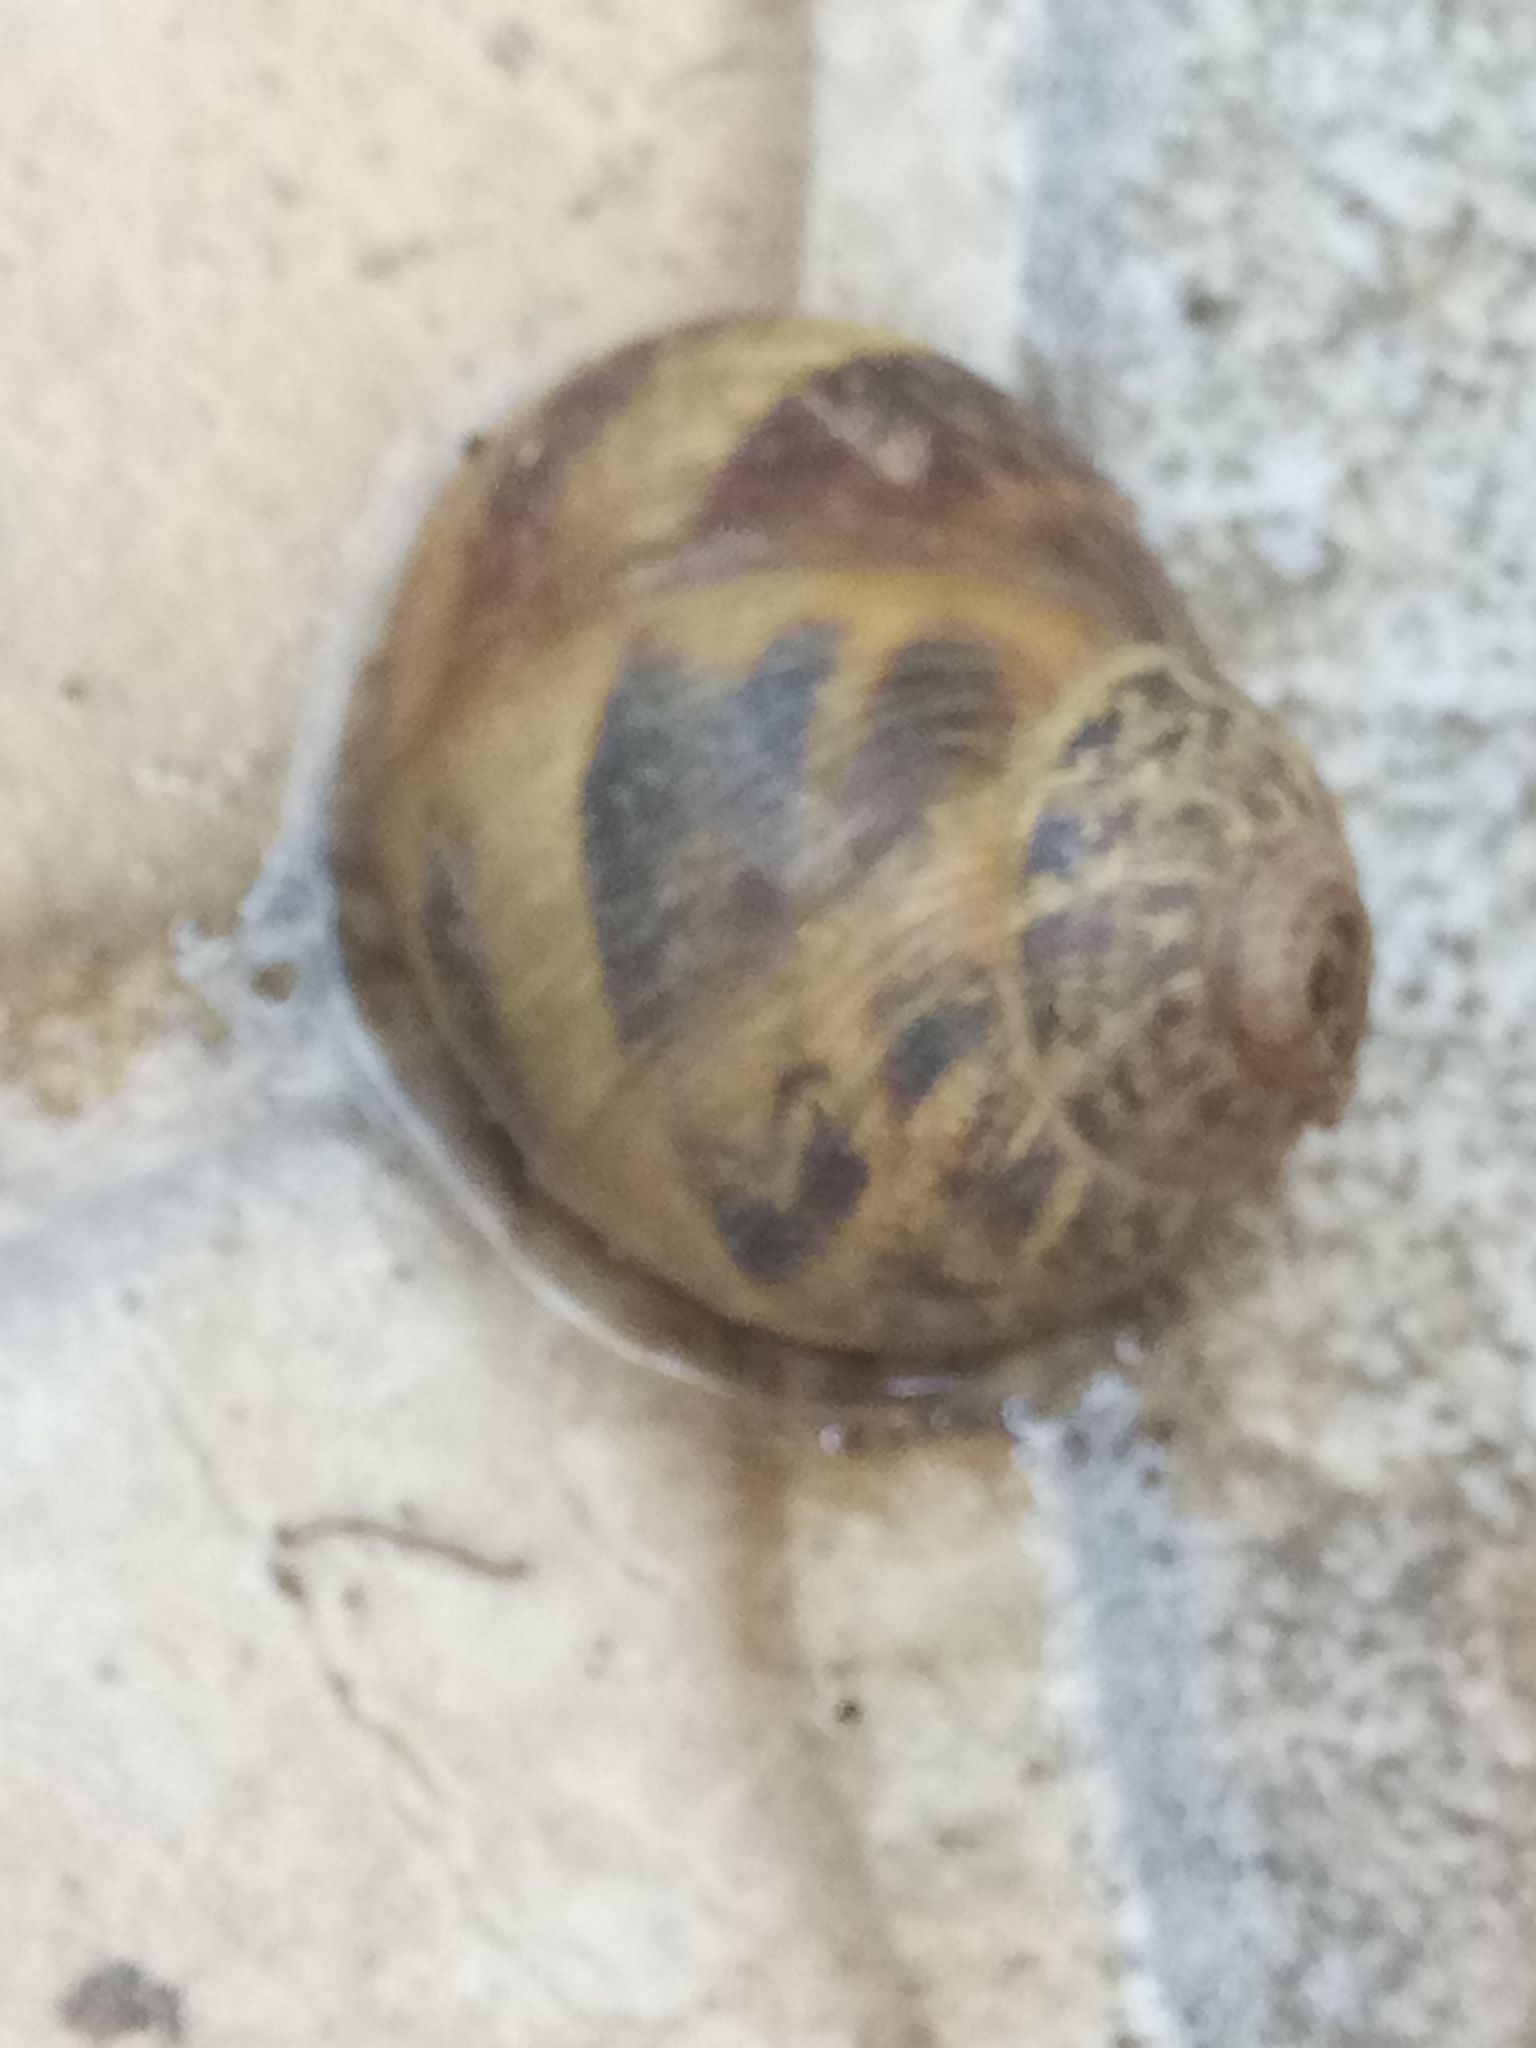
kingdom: Animalia
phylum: Mollusca
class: Gastropoda
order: Stylommatophora
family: Helicidae
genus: Cornu
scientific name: Cornu aspersum
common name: Brown garden snail
